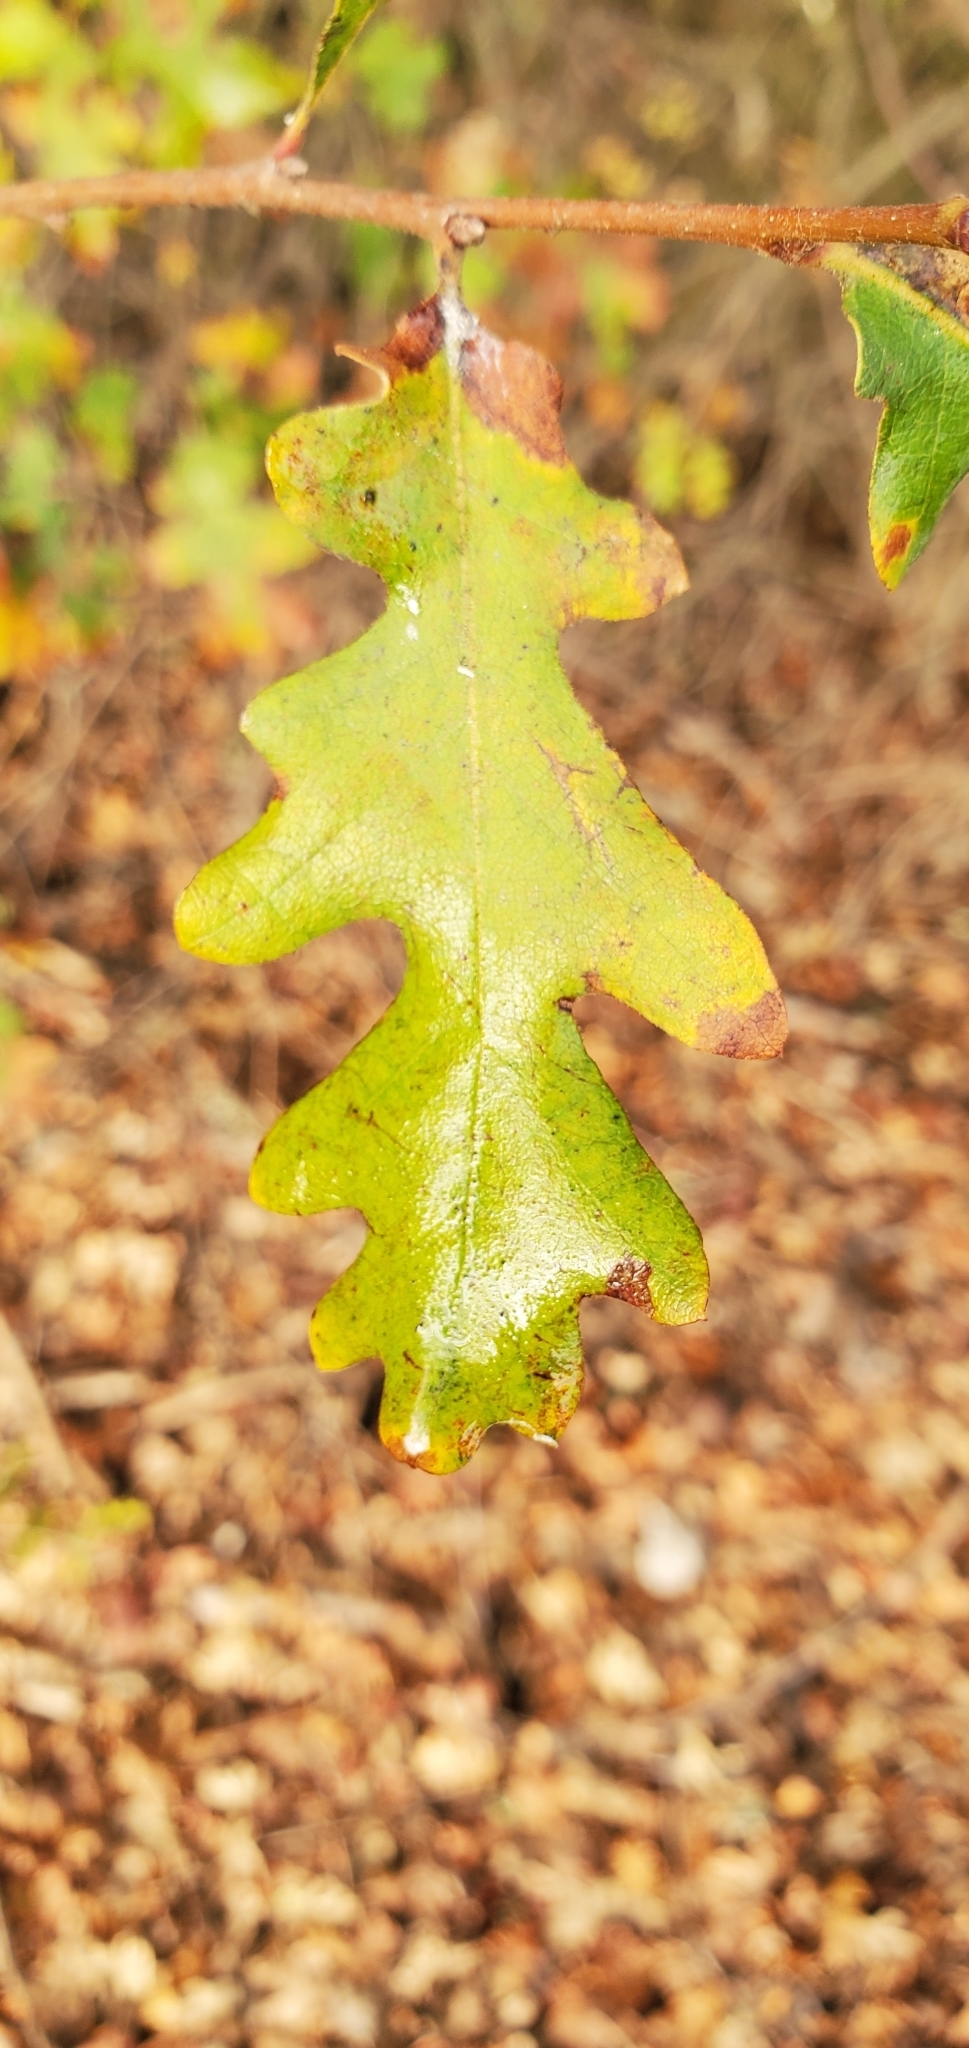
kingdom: Plantae
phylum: Tracheophyta
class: Magnoliopsida
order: Fagales
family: Fagaceae
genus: Quercus
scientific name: Quercus lobata
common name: Valley oak
